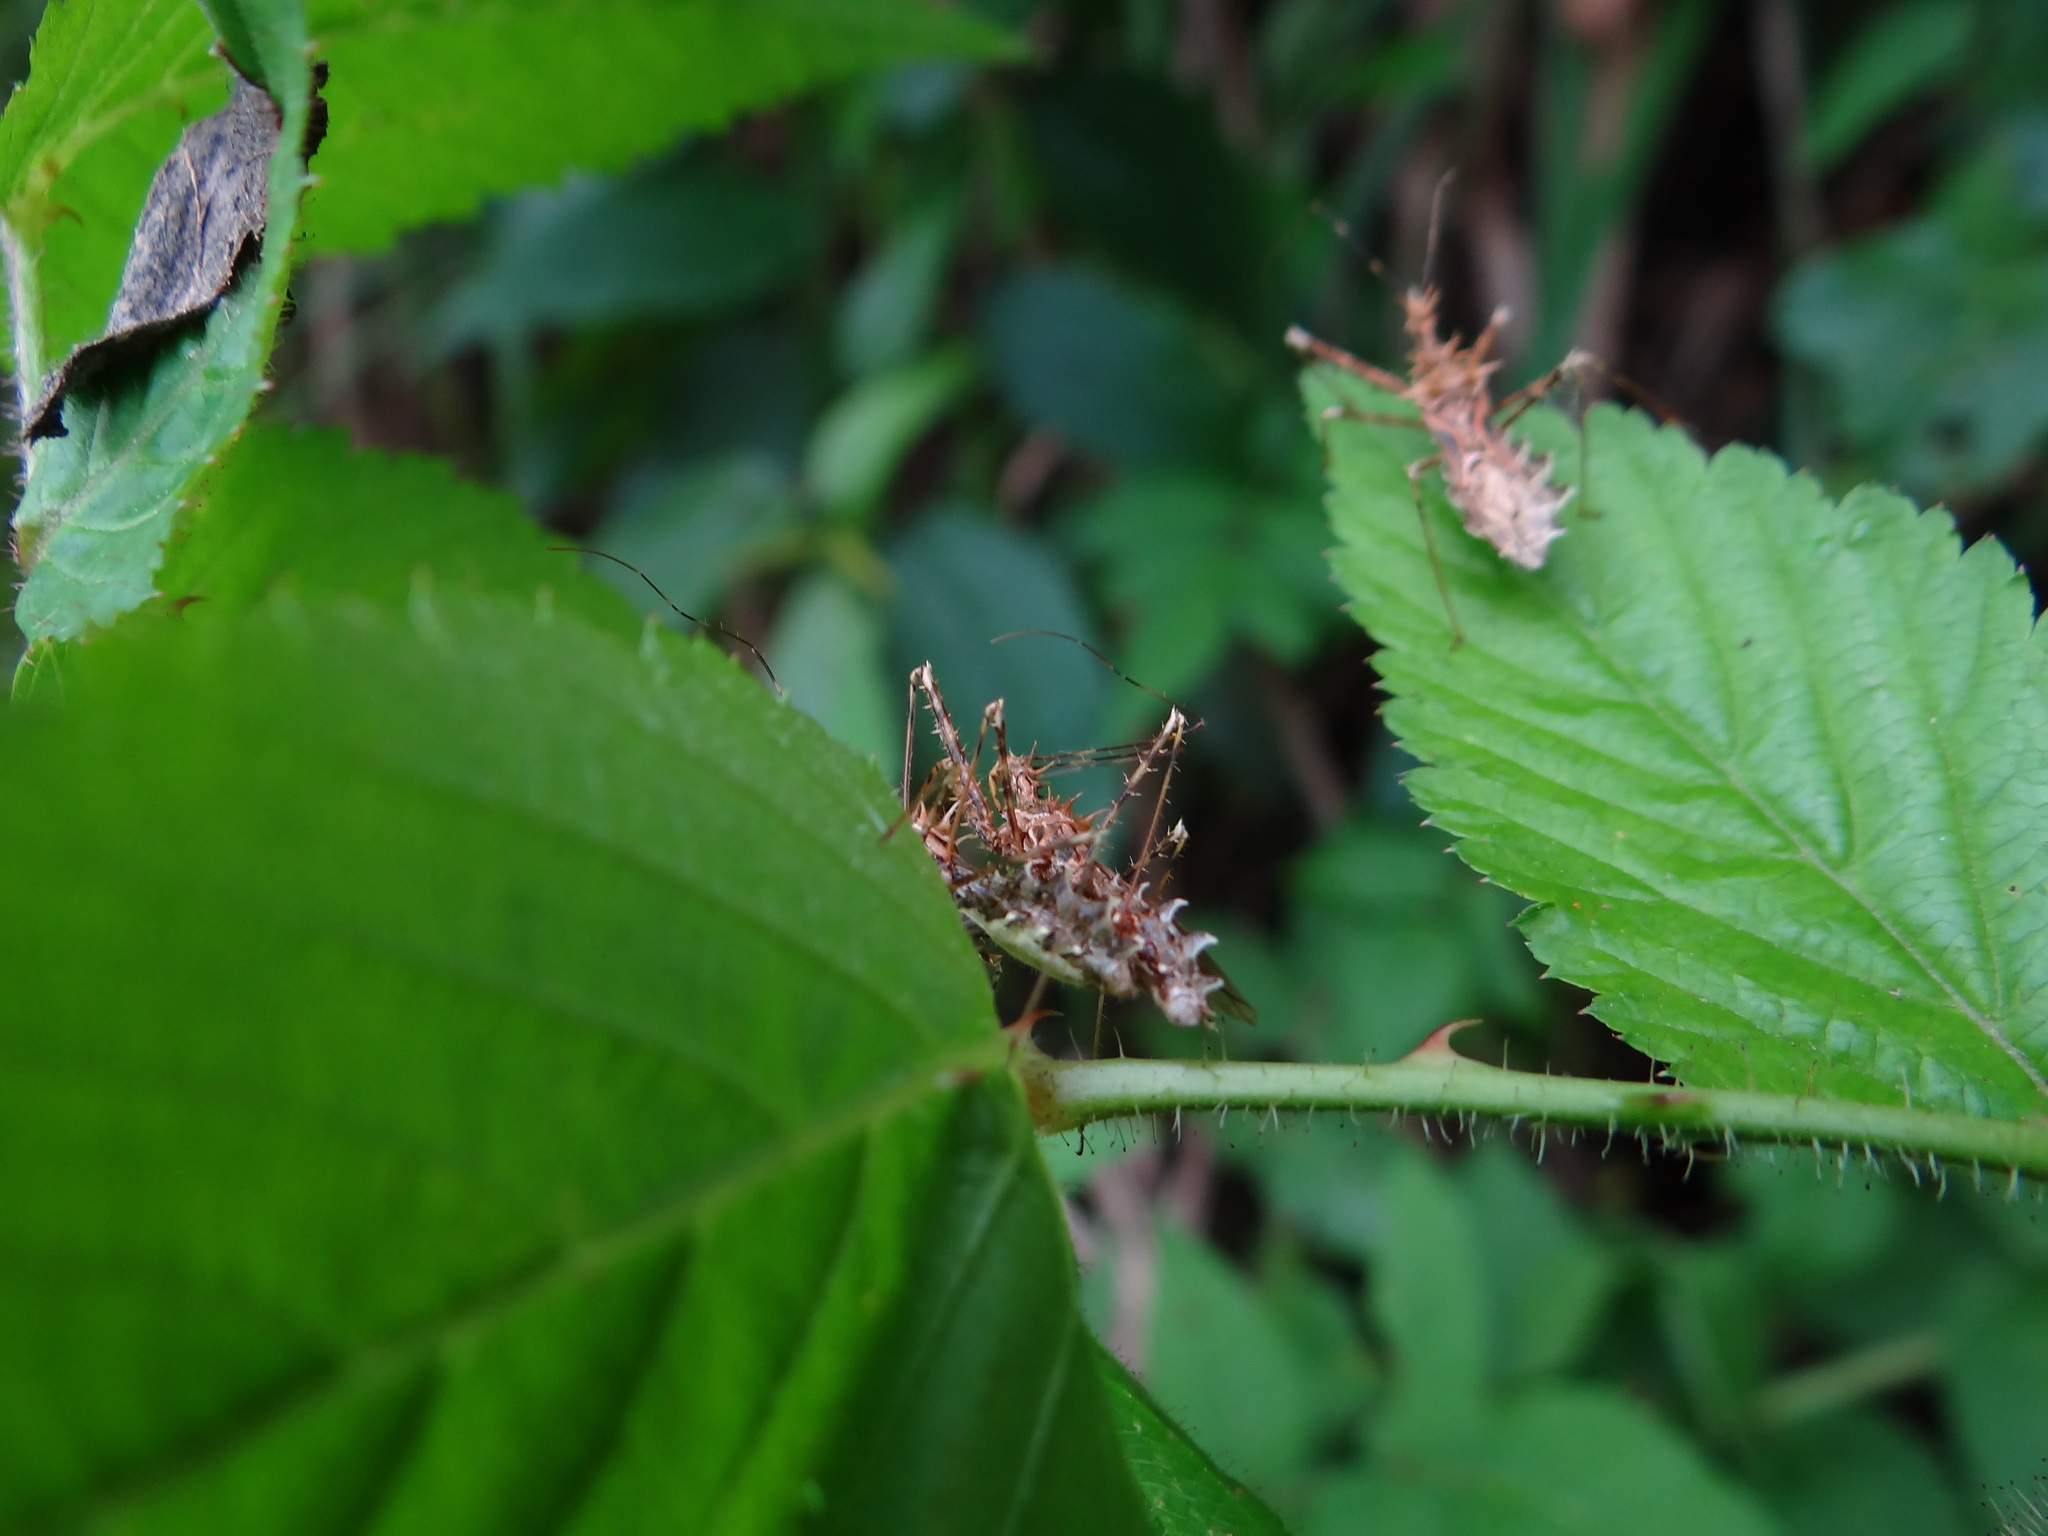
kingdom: Animalia
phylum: Arthropoda
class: Insecta
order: Hemiptera
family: Reduviidae
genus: Sclomina
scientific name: Sclomina erinacea
